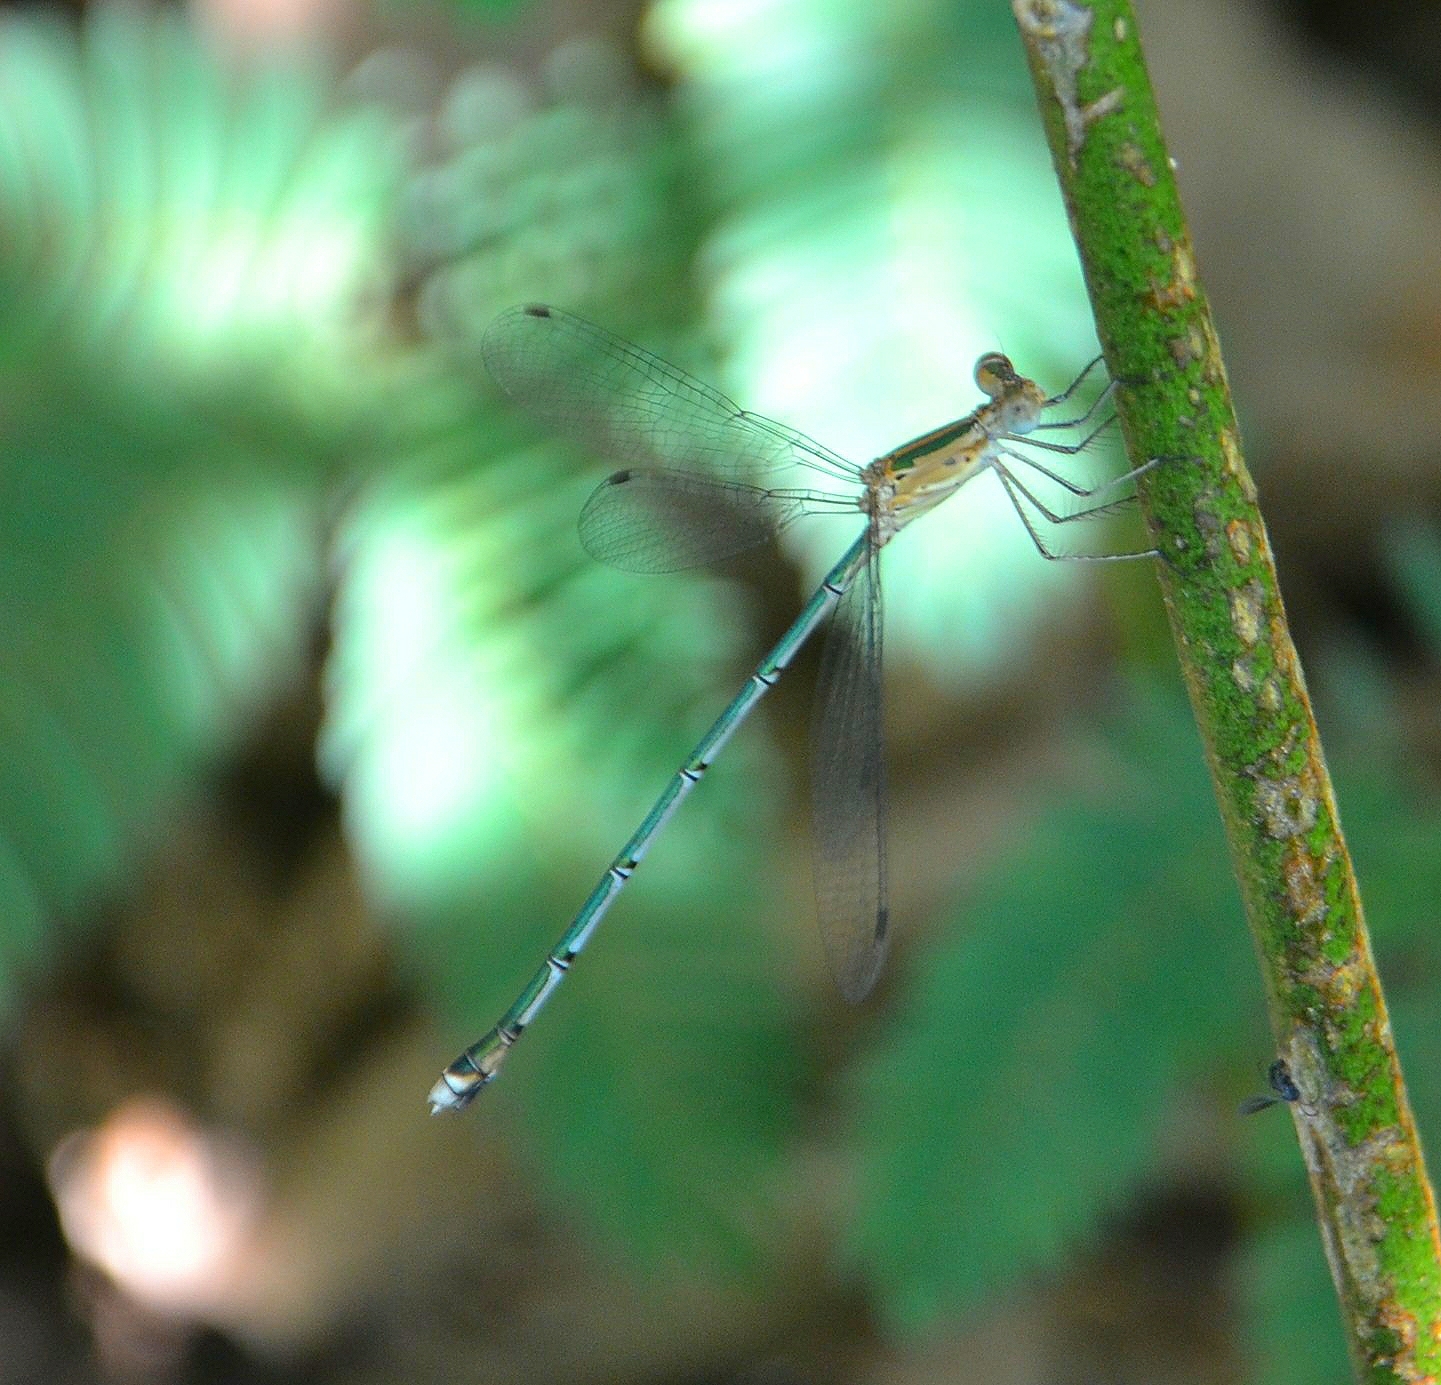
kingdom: Animalia
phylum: Arthropoda
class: Insecta
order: Odonata
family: Lestidae
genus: Lestes
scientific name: Lestes elatus
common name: Emerald spreadwing
